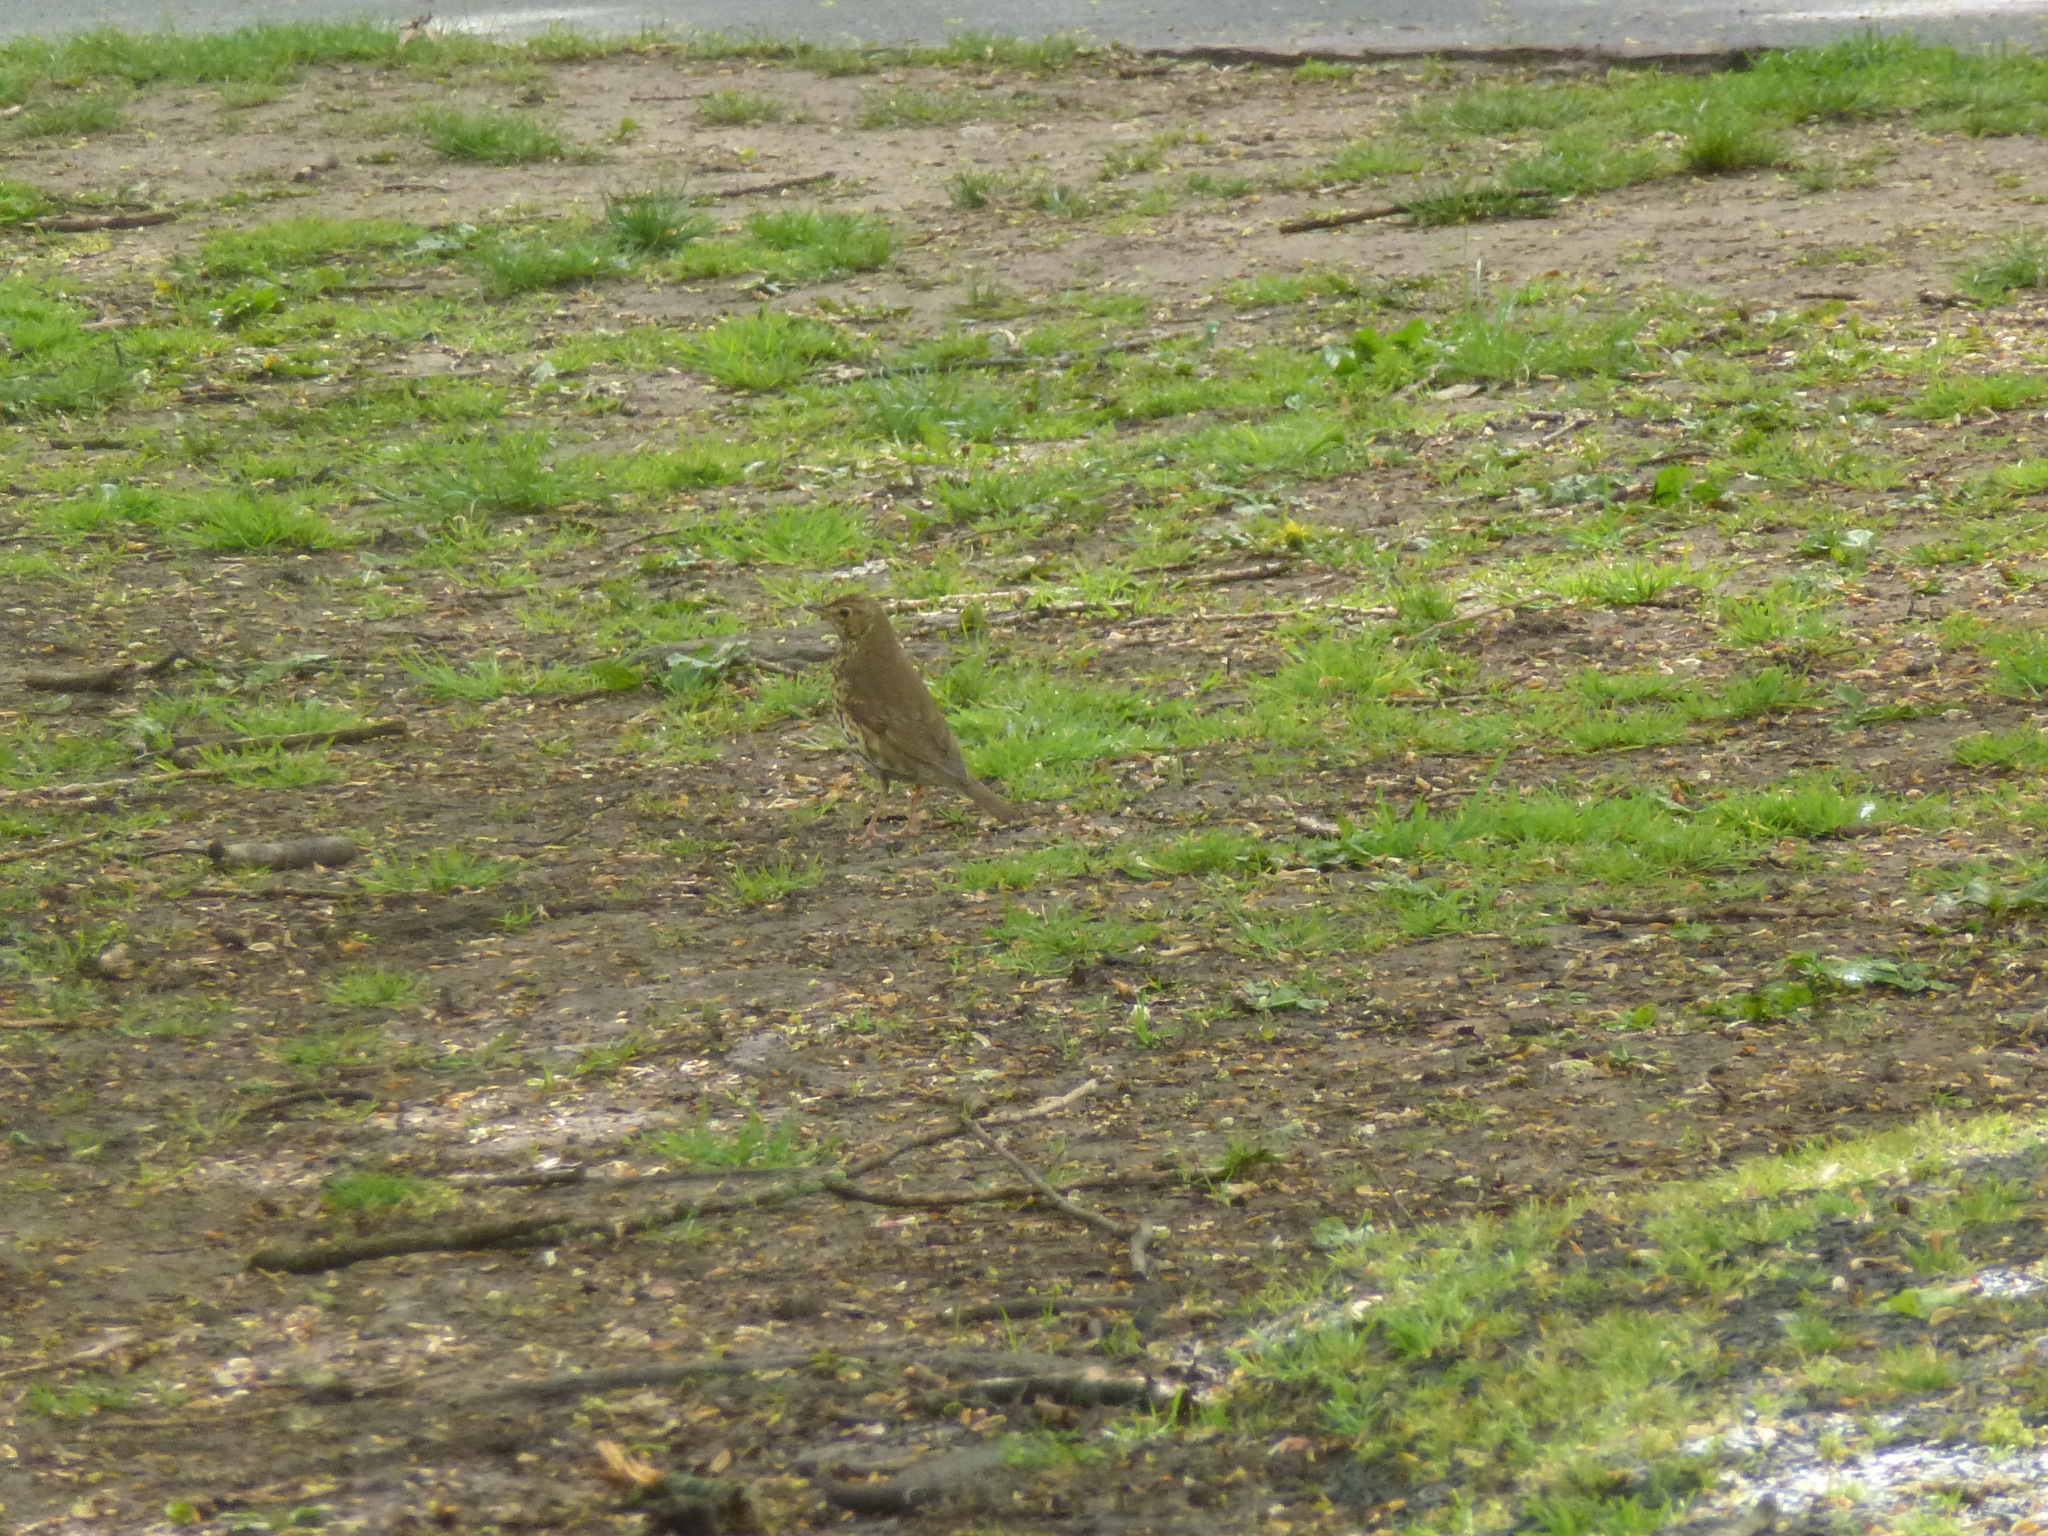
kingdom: Animalia
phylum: Chordata
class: Aves
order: Passeriformes
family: Turdidae
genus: Turdus
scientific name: Turdus philomelos
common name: Song thrush
